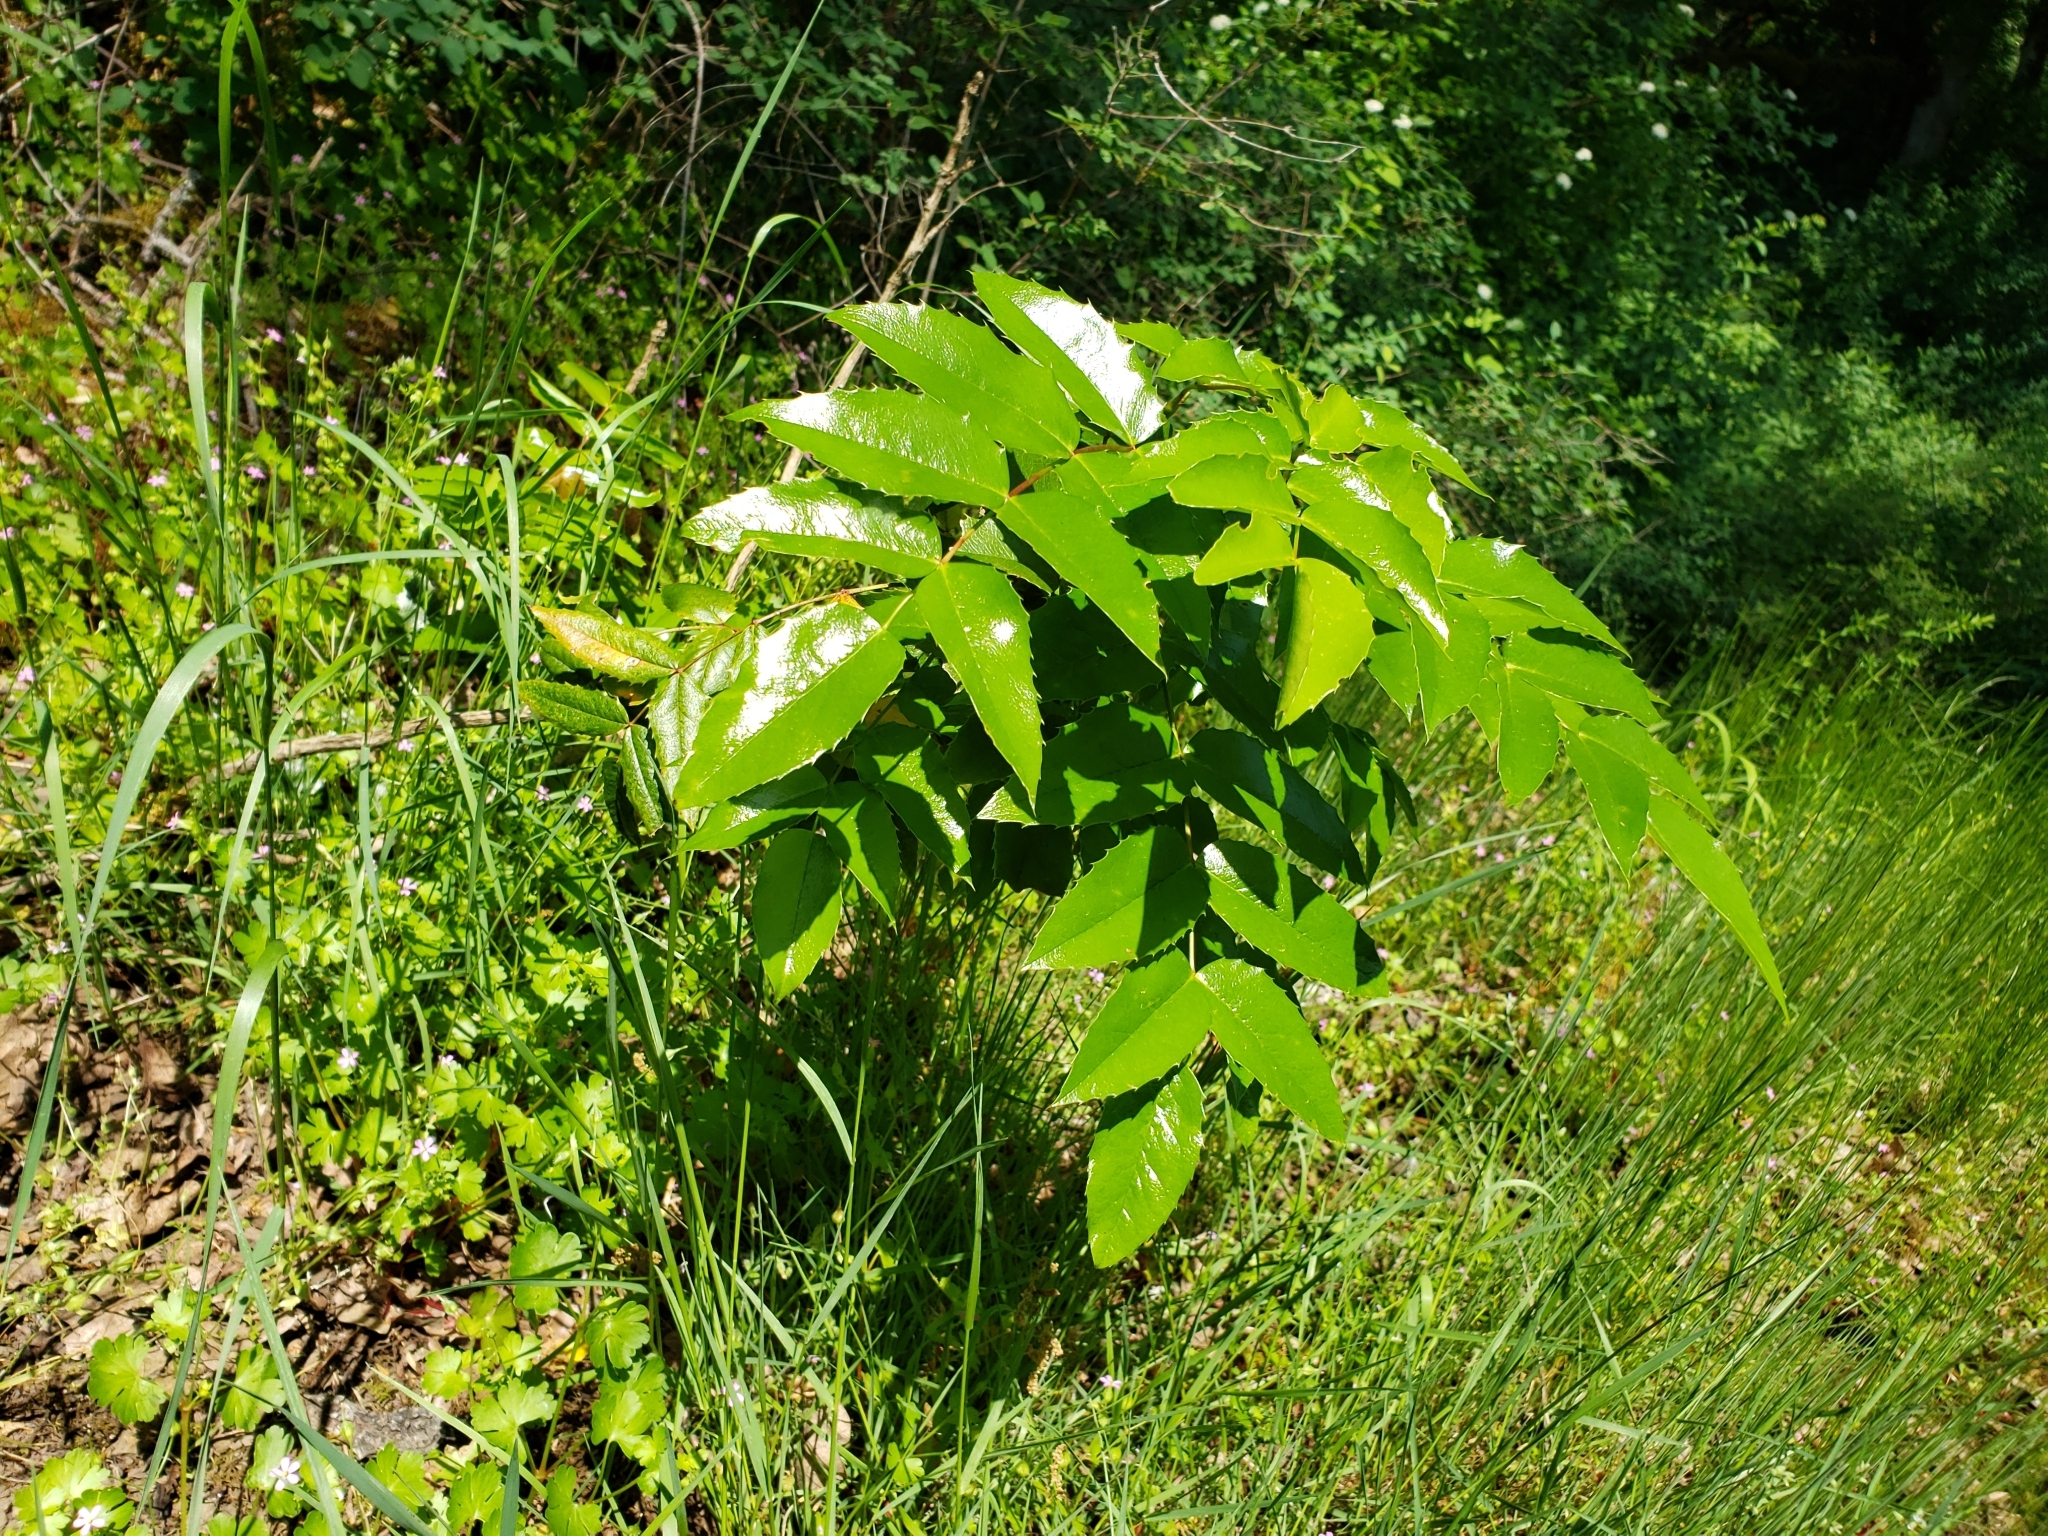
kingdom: Plantae
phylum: Tracheophyta
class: Magnoliopsida
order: Ranunculales
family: Berberidaceae
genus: Mahonia
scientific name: Mahonia aquifolium
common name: Oregon-grape
